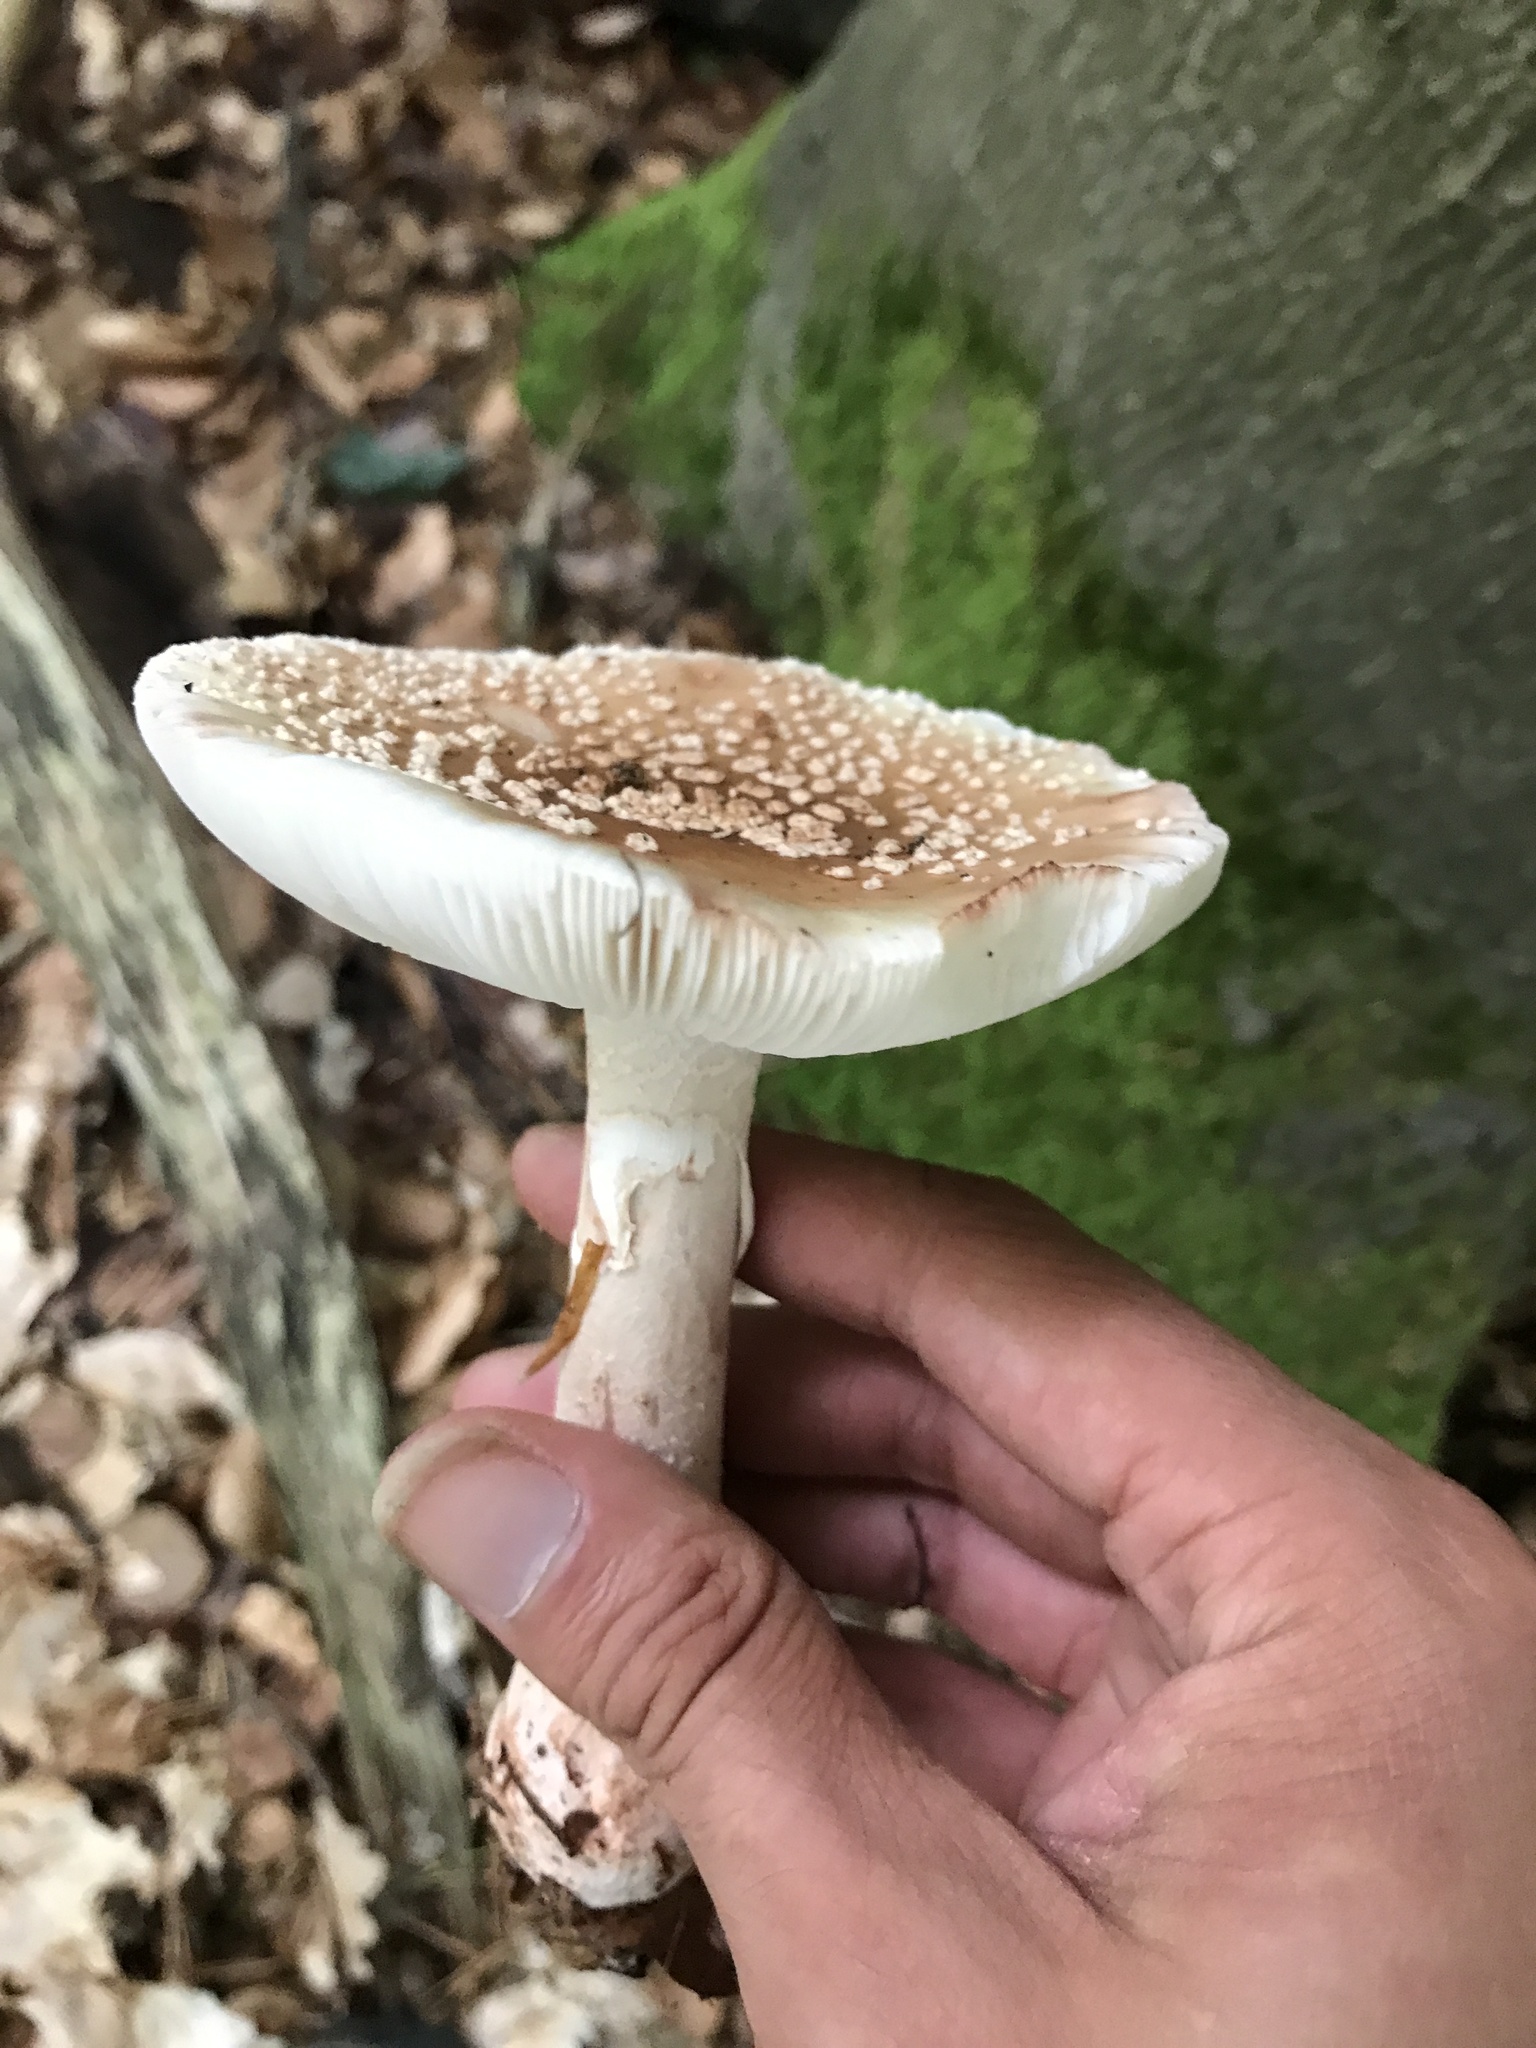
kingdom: Fungi
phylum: Basidiomycota
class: Agaricomycetes
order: Agaricales
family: Amanitaceae
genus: Amanita
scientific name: Amanita rubescens
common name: Blusher
